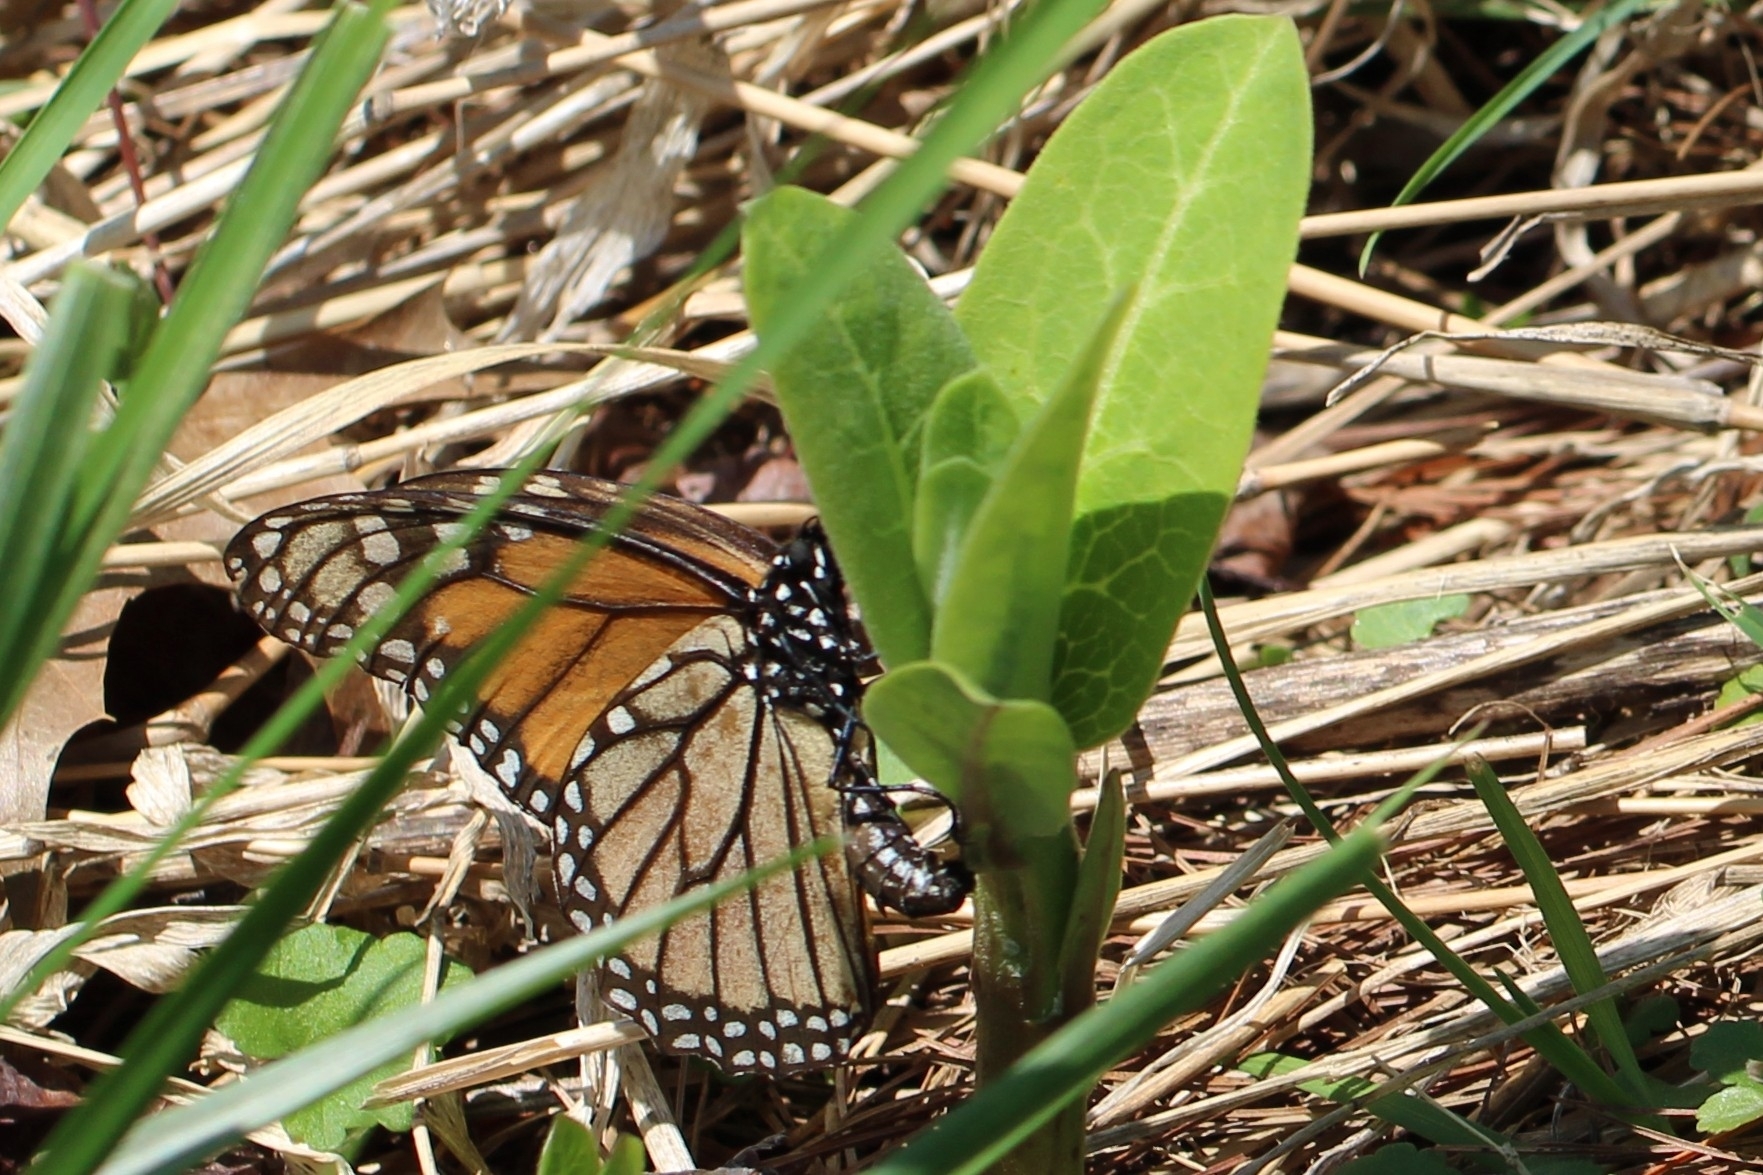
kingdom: Animalia
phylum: Arthropoda
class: Insecta
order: Lepidoptera
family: Nymphalidae
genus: Danaus
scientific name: Danaus plexippus
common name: Monarch
